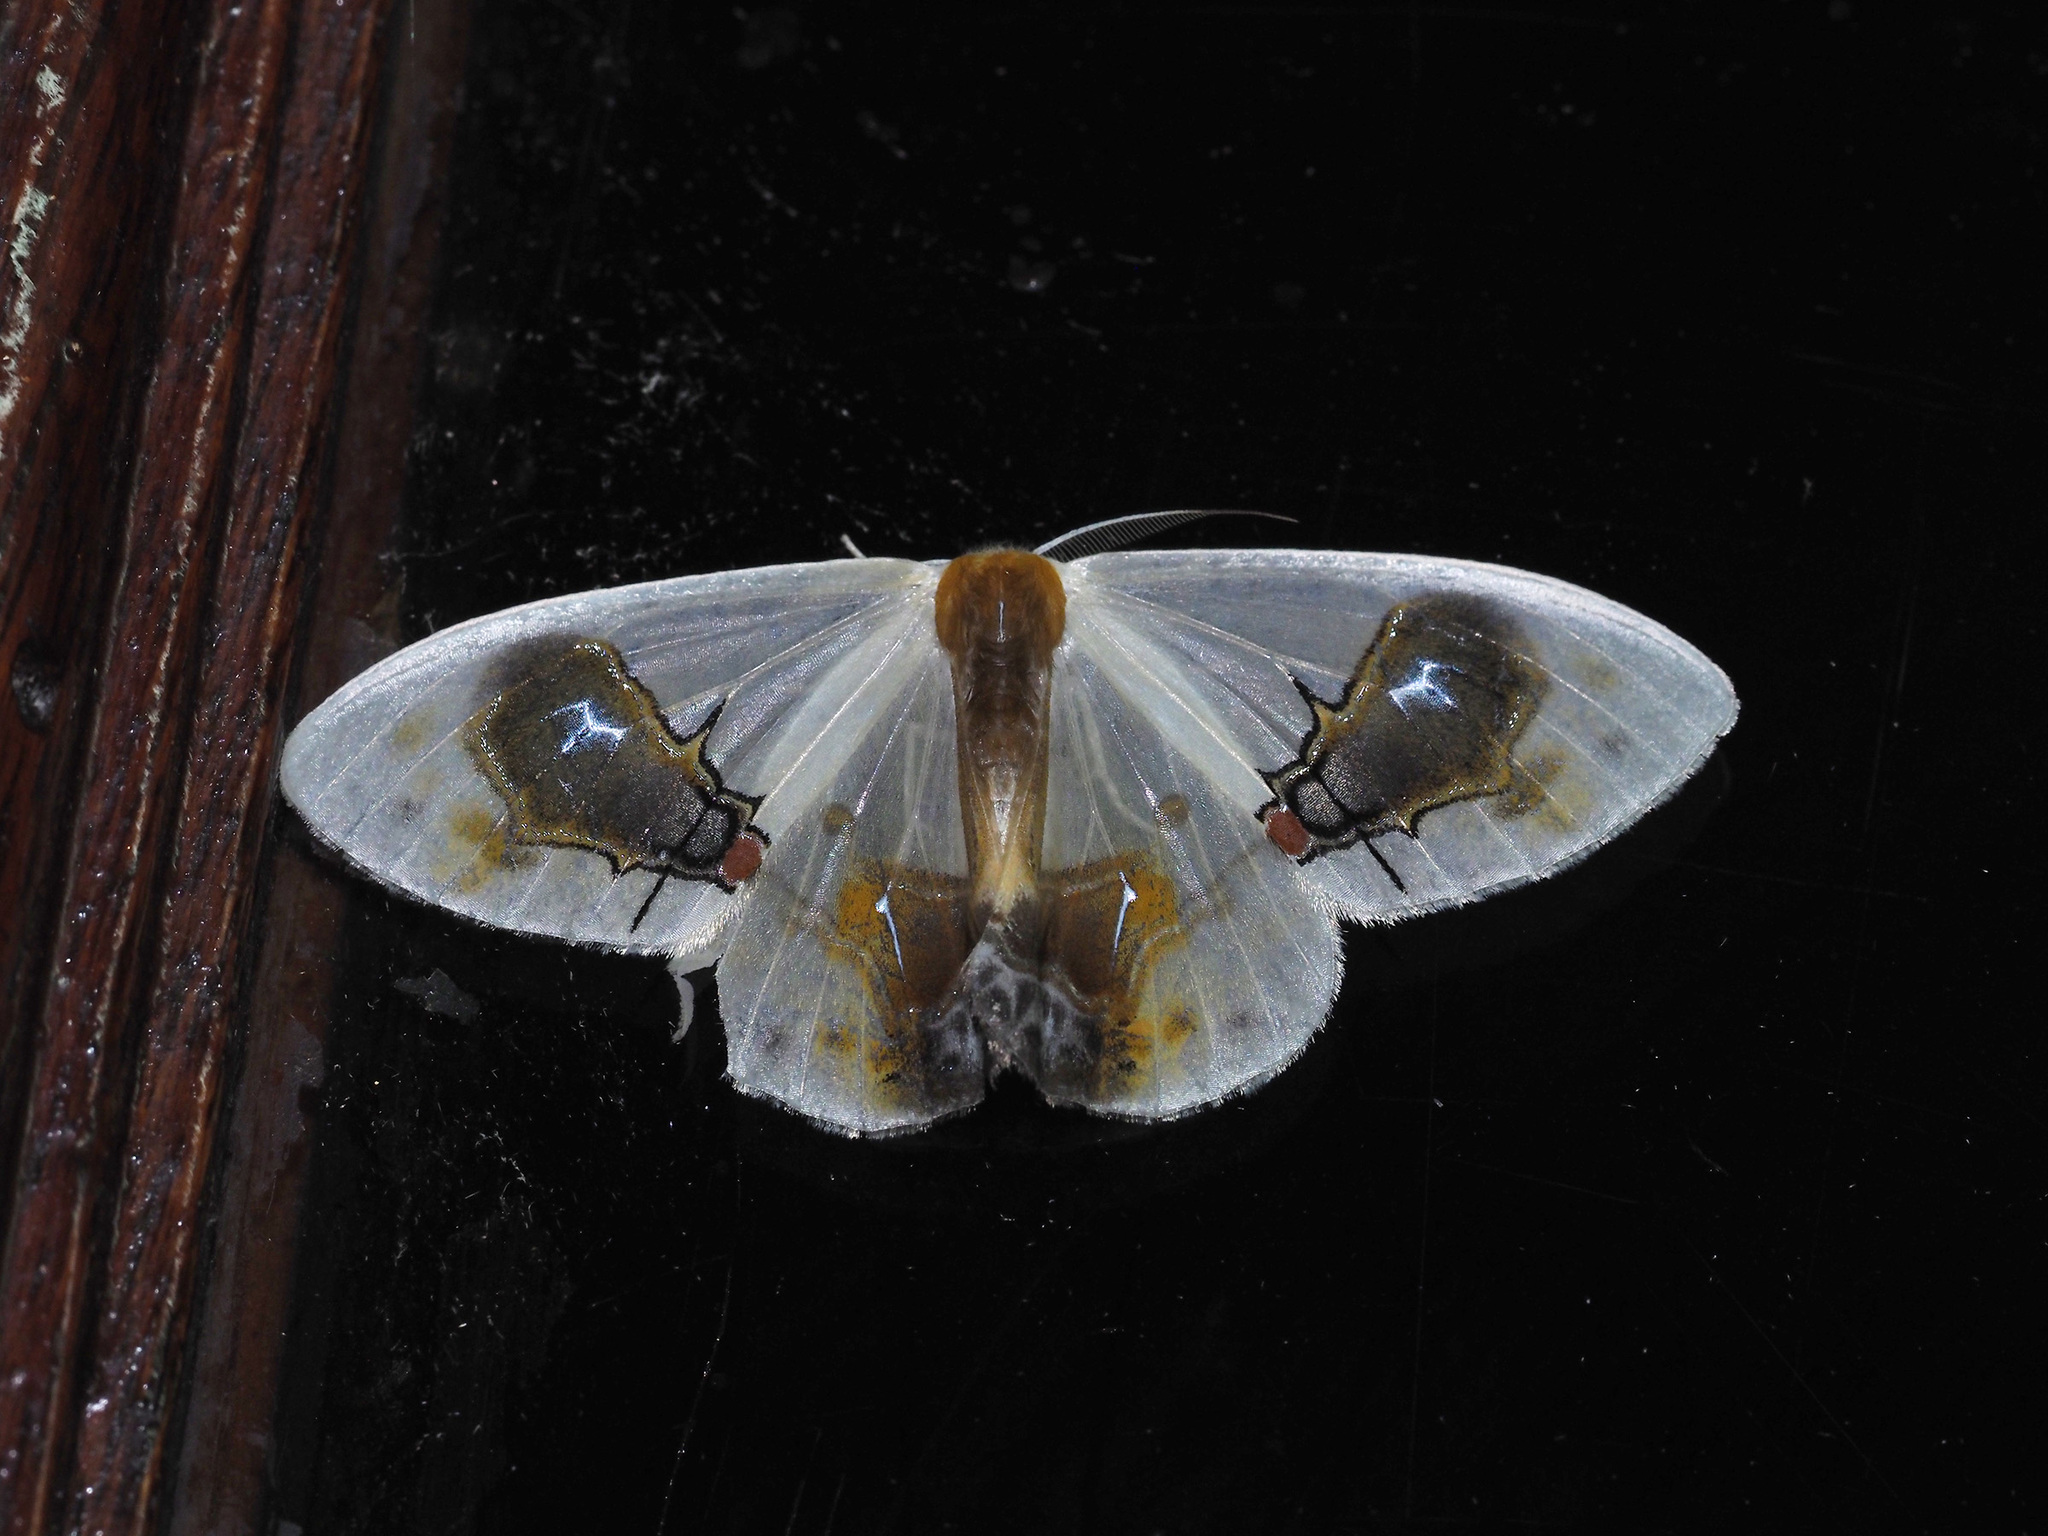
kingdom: Animalia
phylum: Arthropoda
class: Insecta
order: Lepidoptera
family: Drepanidae
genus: Macrocilix
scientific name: Macrocilix maia
